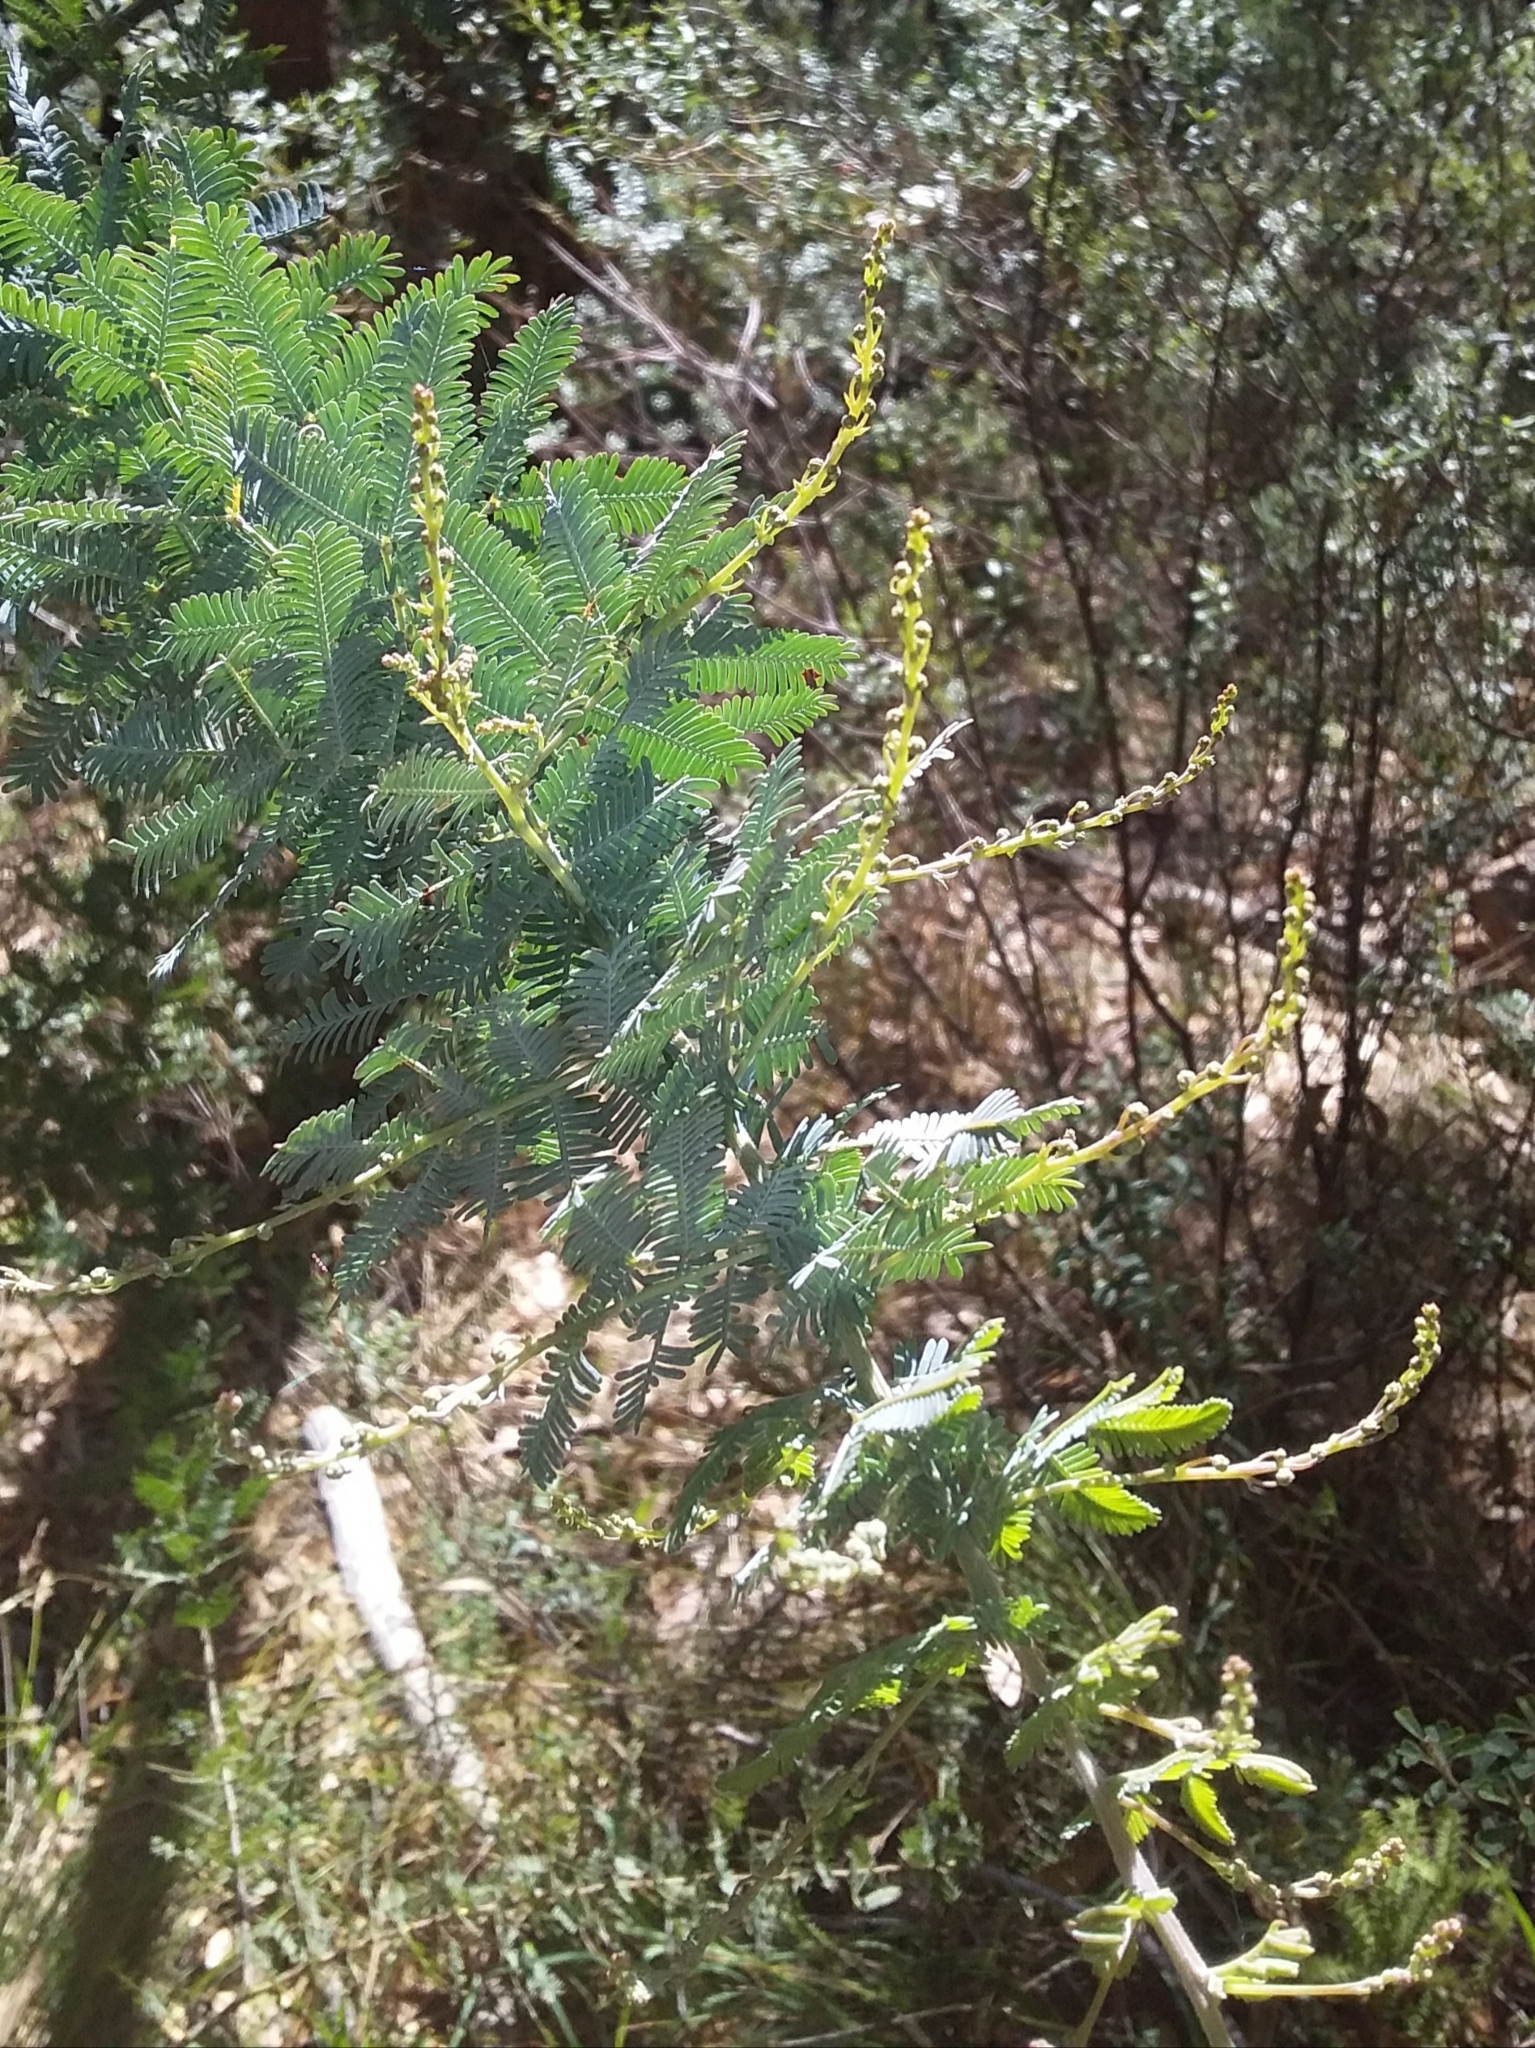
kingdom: Plantae
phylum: Tracheophyta
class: Magnoliopsida
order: Fabales
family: Fabaceae
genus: Acacia
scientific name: Acacia baileyana
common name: Cootamundra wattle
